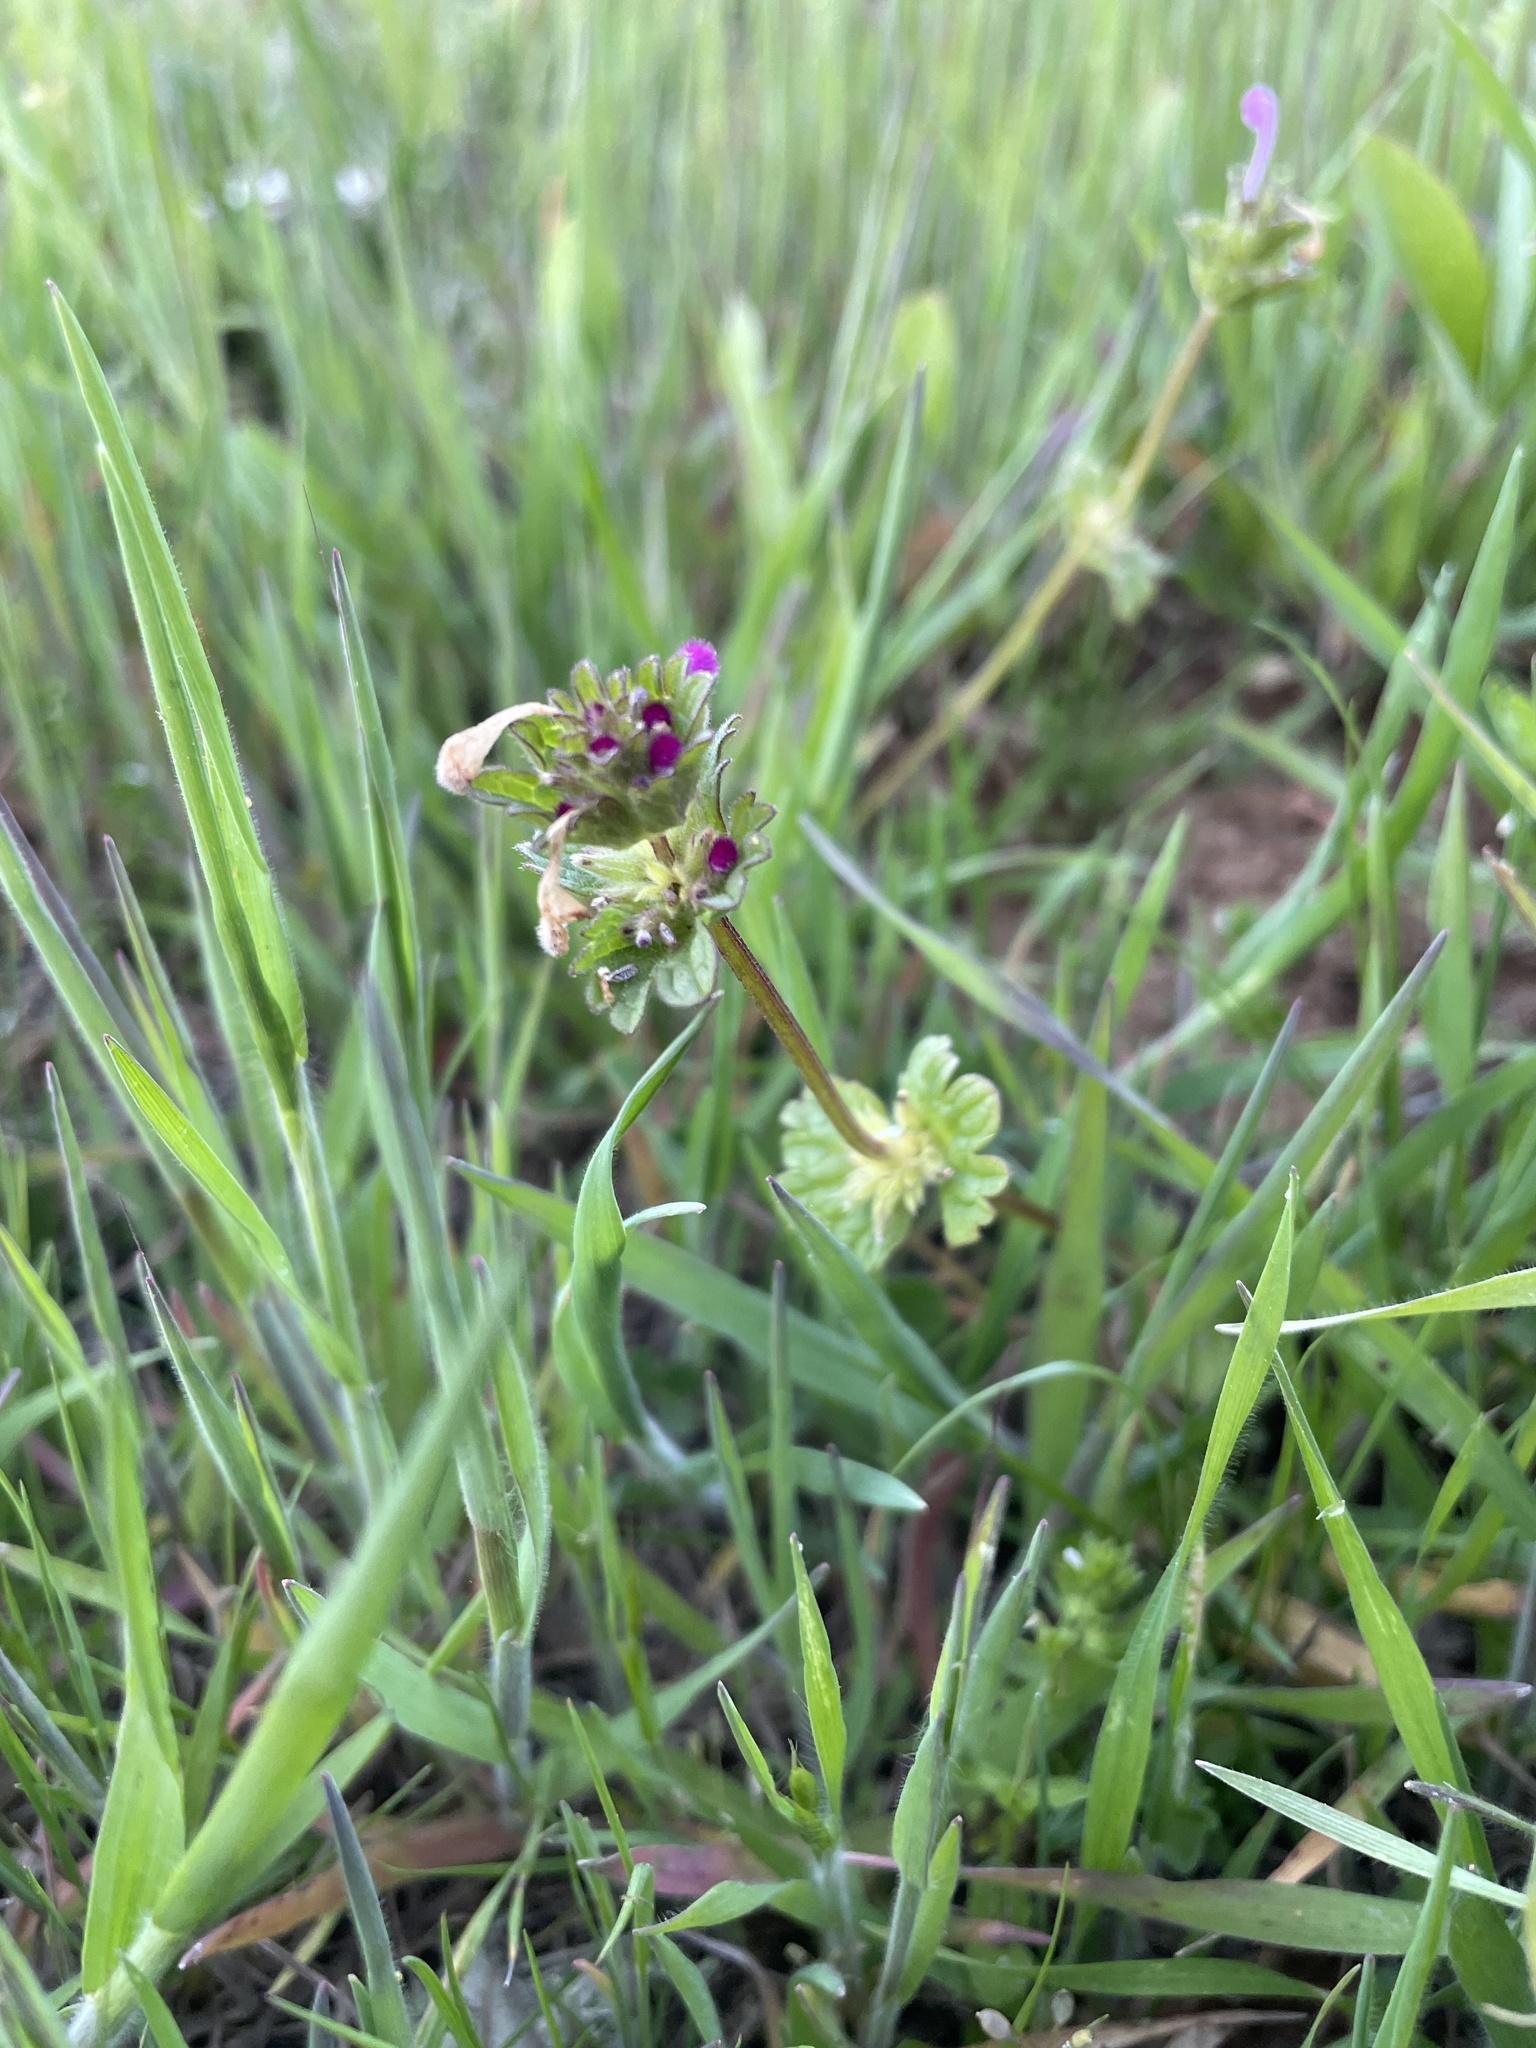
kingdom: Plantae
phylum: Tracheophyta
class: Magnoliopsida
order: Lamiales
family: Lamiaceae
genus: Lamium
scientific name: Lamium amplexicaule
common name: Henbit dead-nettle
